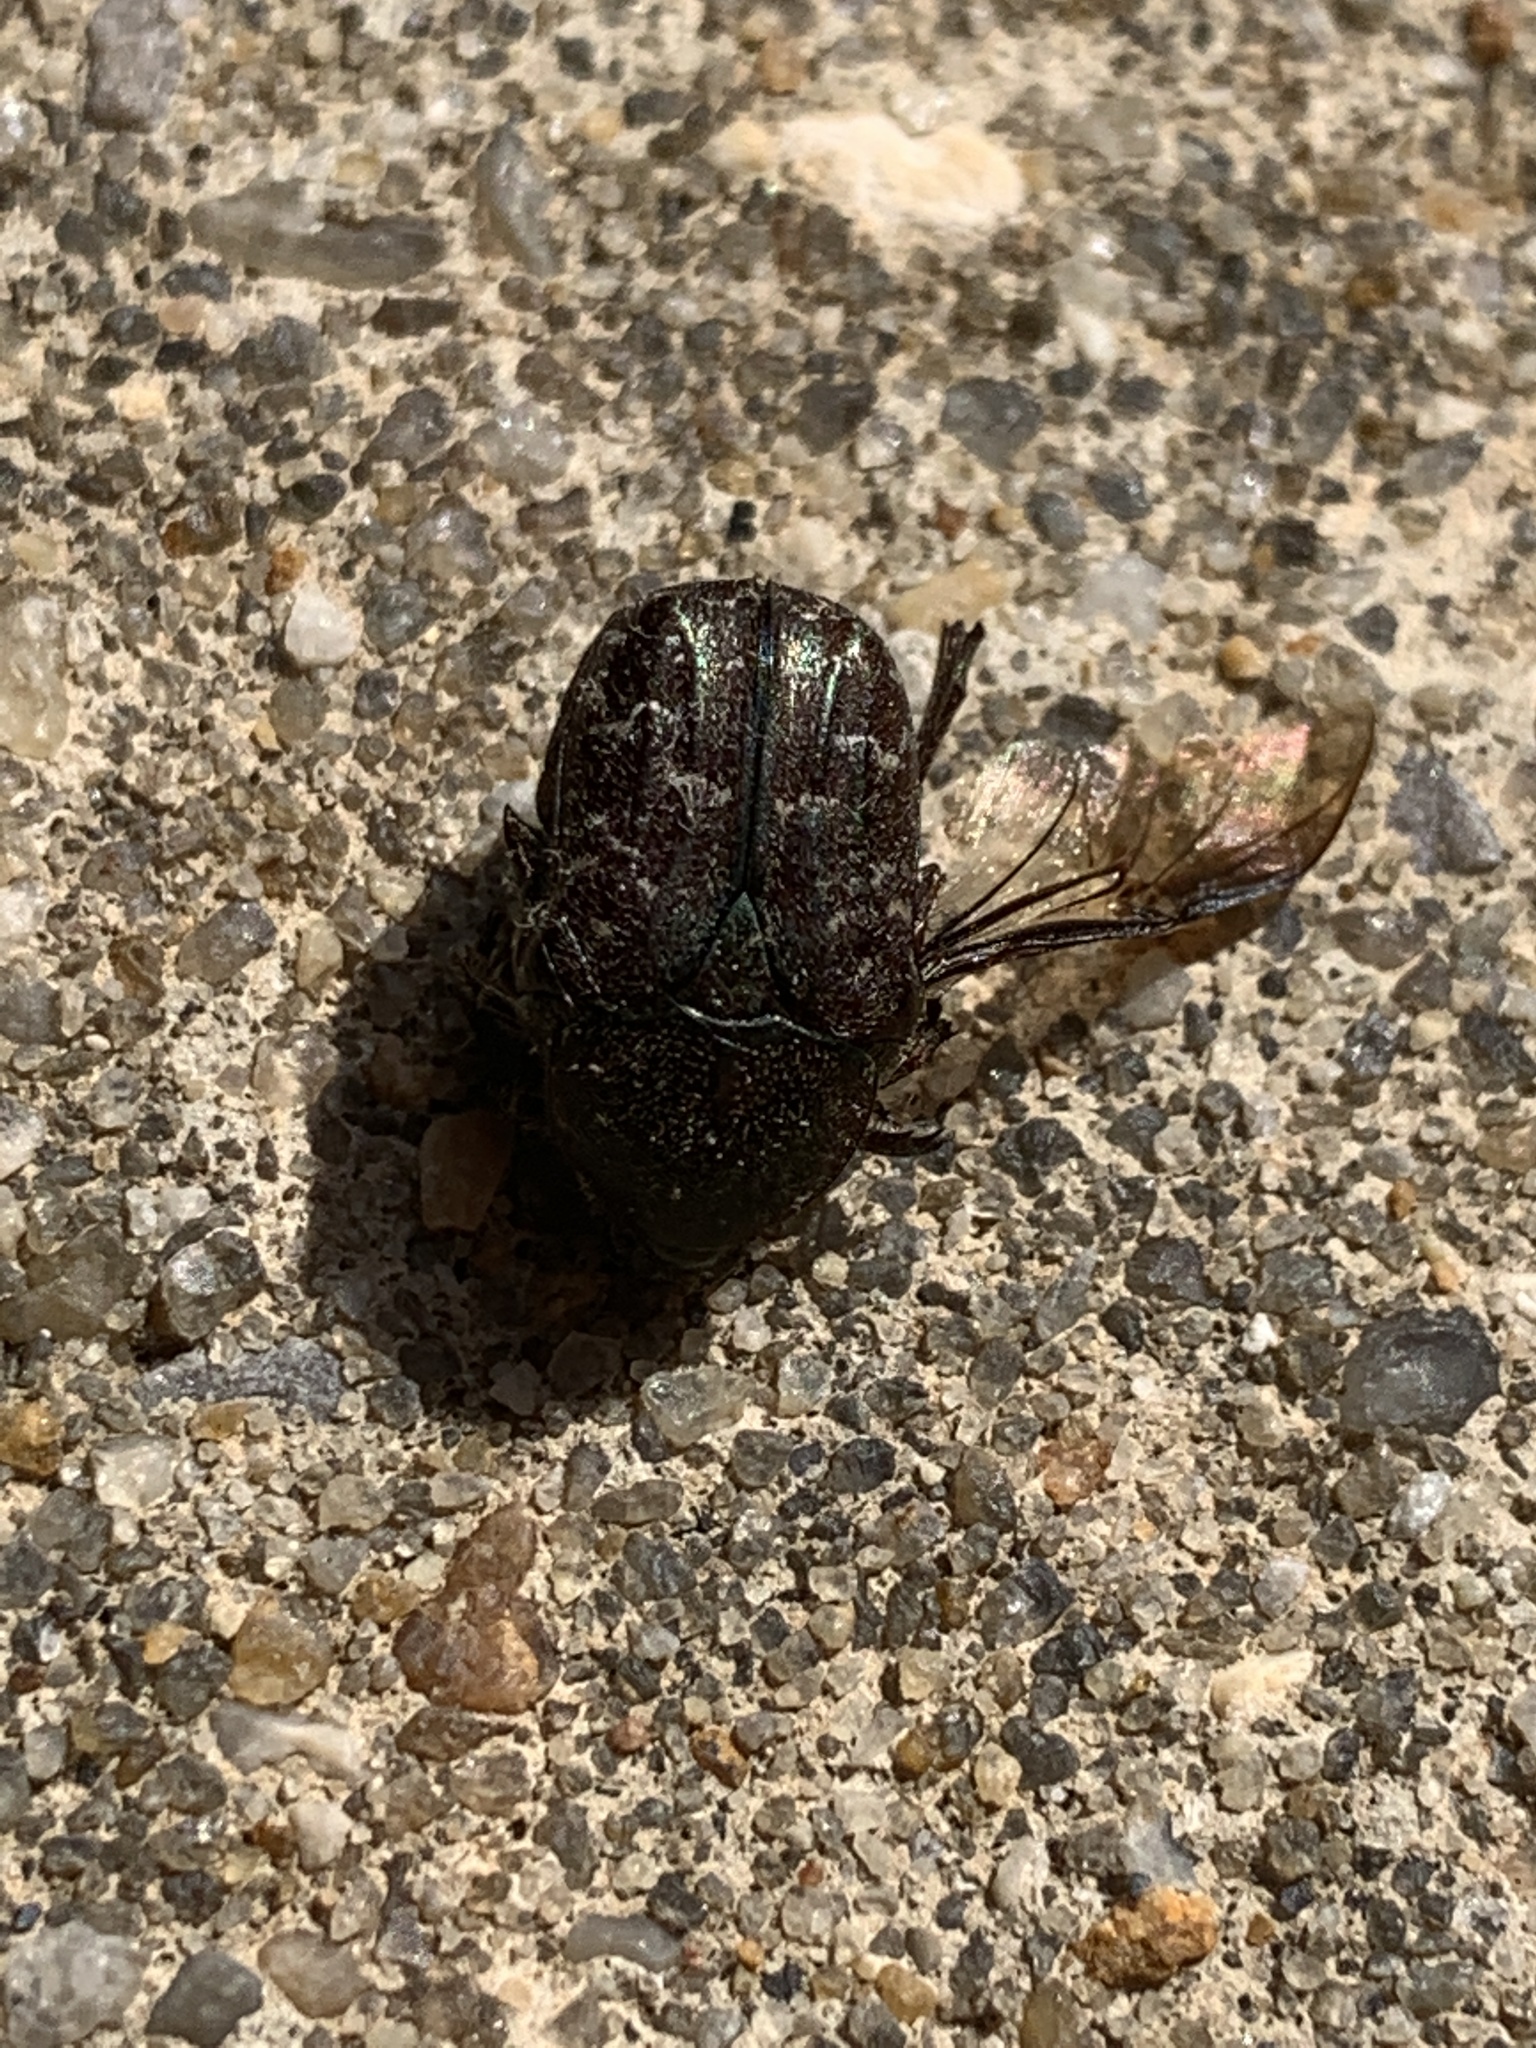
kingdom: Animalia
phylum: Arthropoda
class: Insecta
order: Coleoptera
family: Scarabaeidae
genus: Euphoria
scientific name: Euphoria sepulcralis
